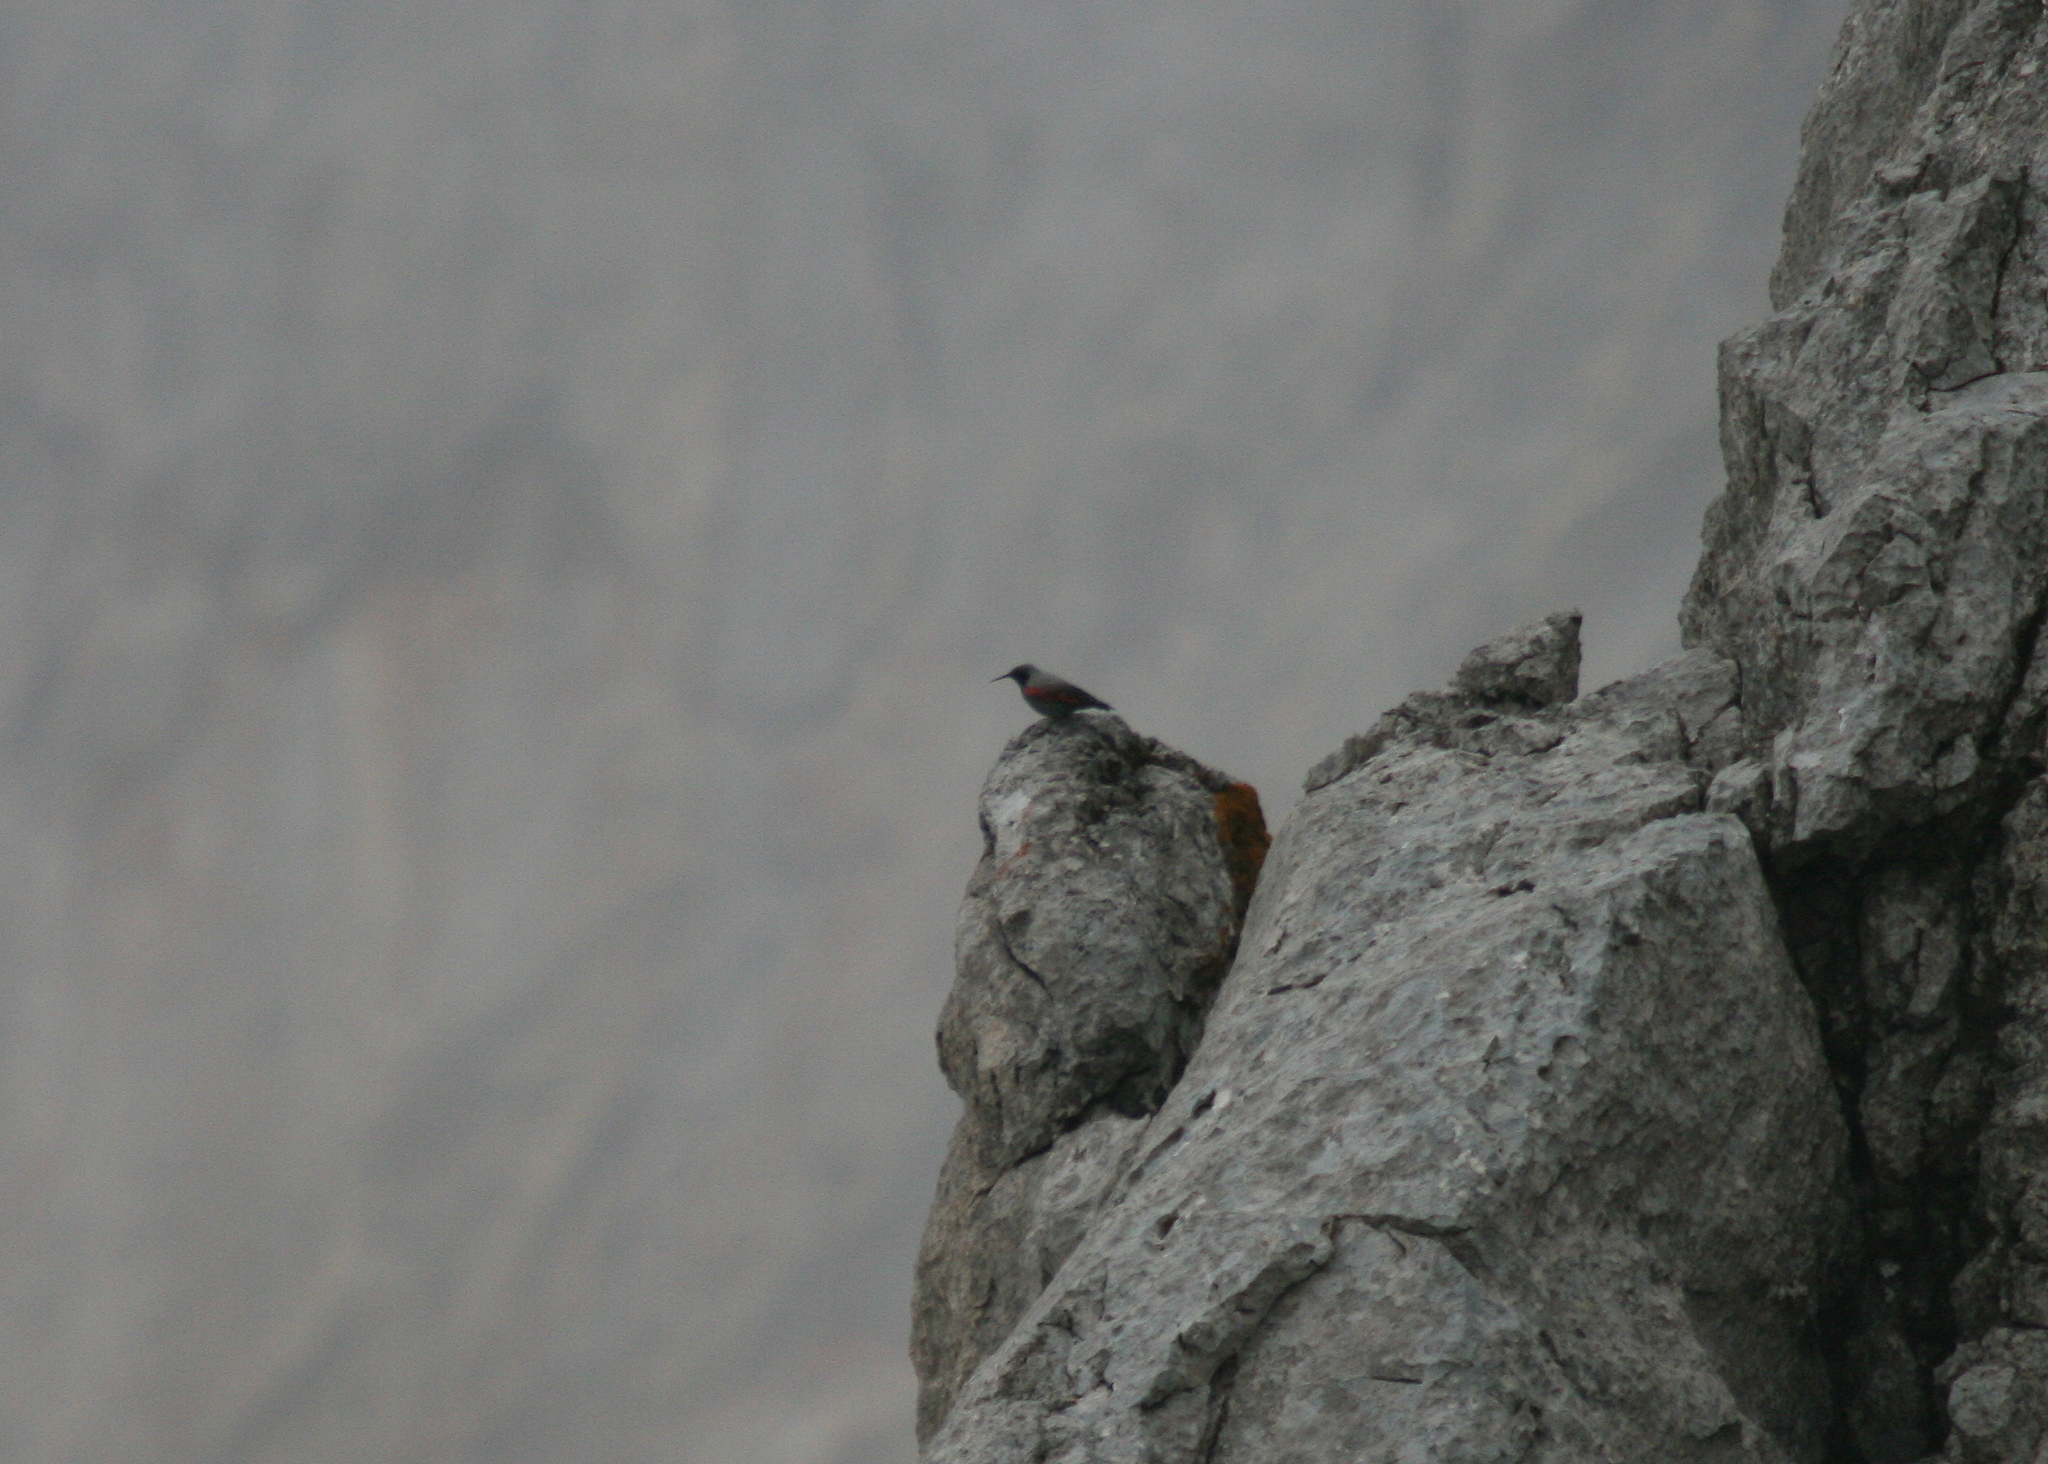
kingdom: Animalia
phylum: Chordata
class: Aves
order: Passeriformes
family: Tichodromidae
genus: Tichodroma
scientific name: Tichodroma muraria
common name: Wallcreeper
